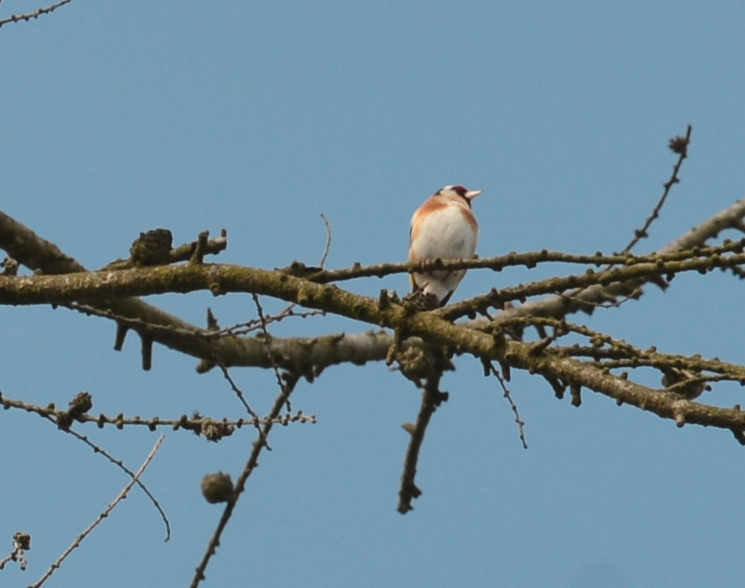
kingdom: Animalia
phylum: Chordata
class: Aves
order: Passeriformes
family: Fringillidae
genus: Carduelis
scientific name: Carduelis carduelis
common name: European goldfinch
